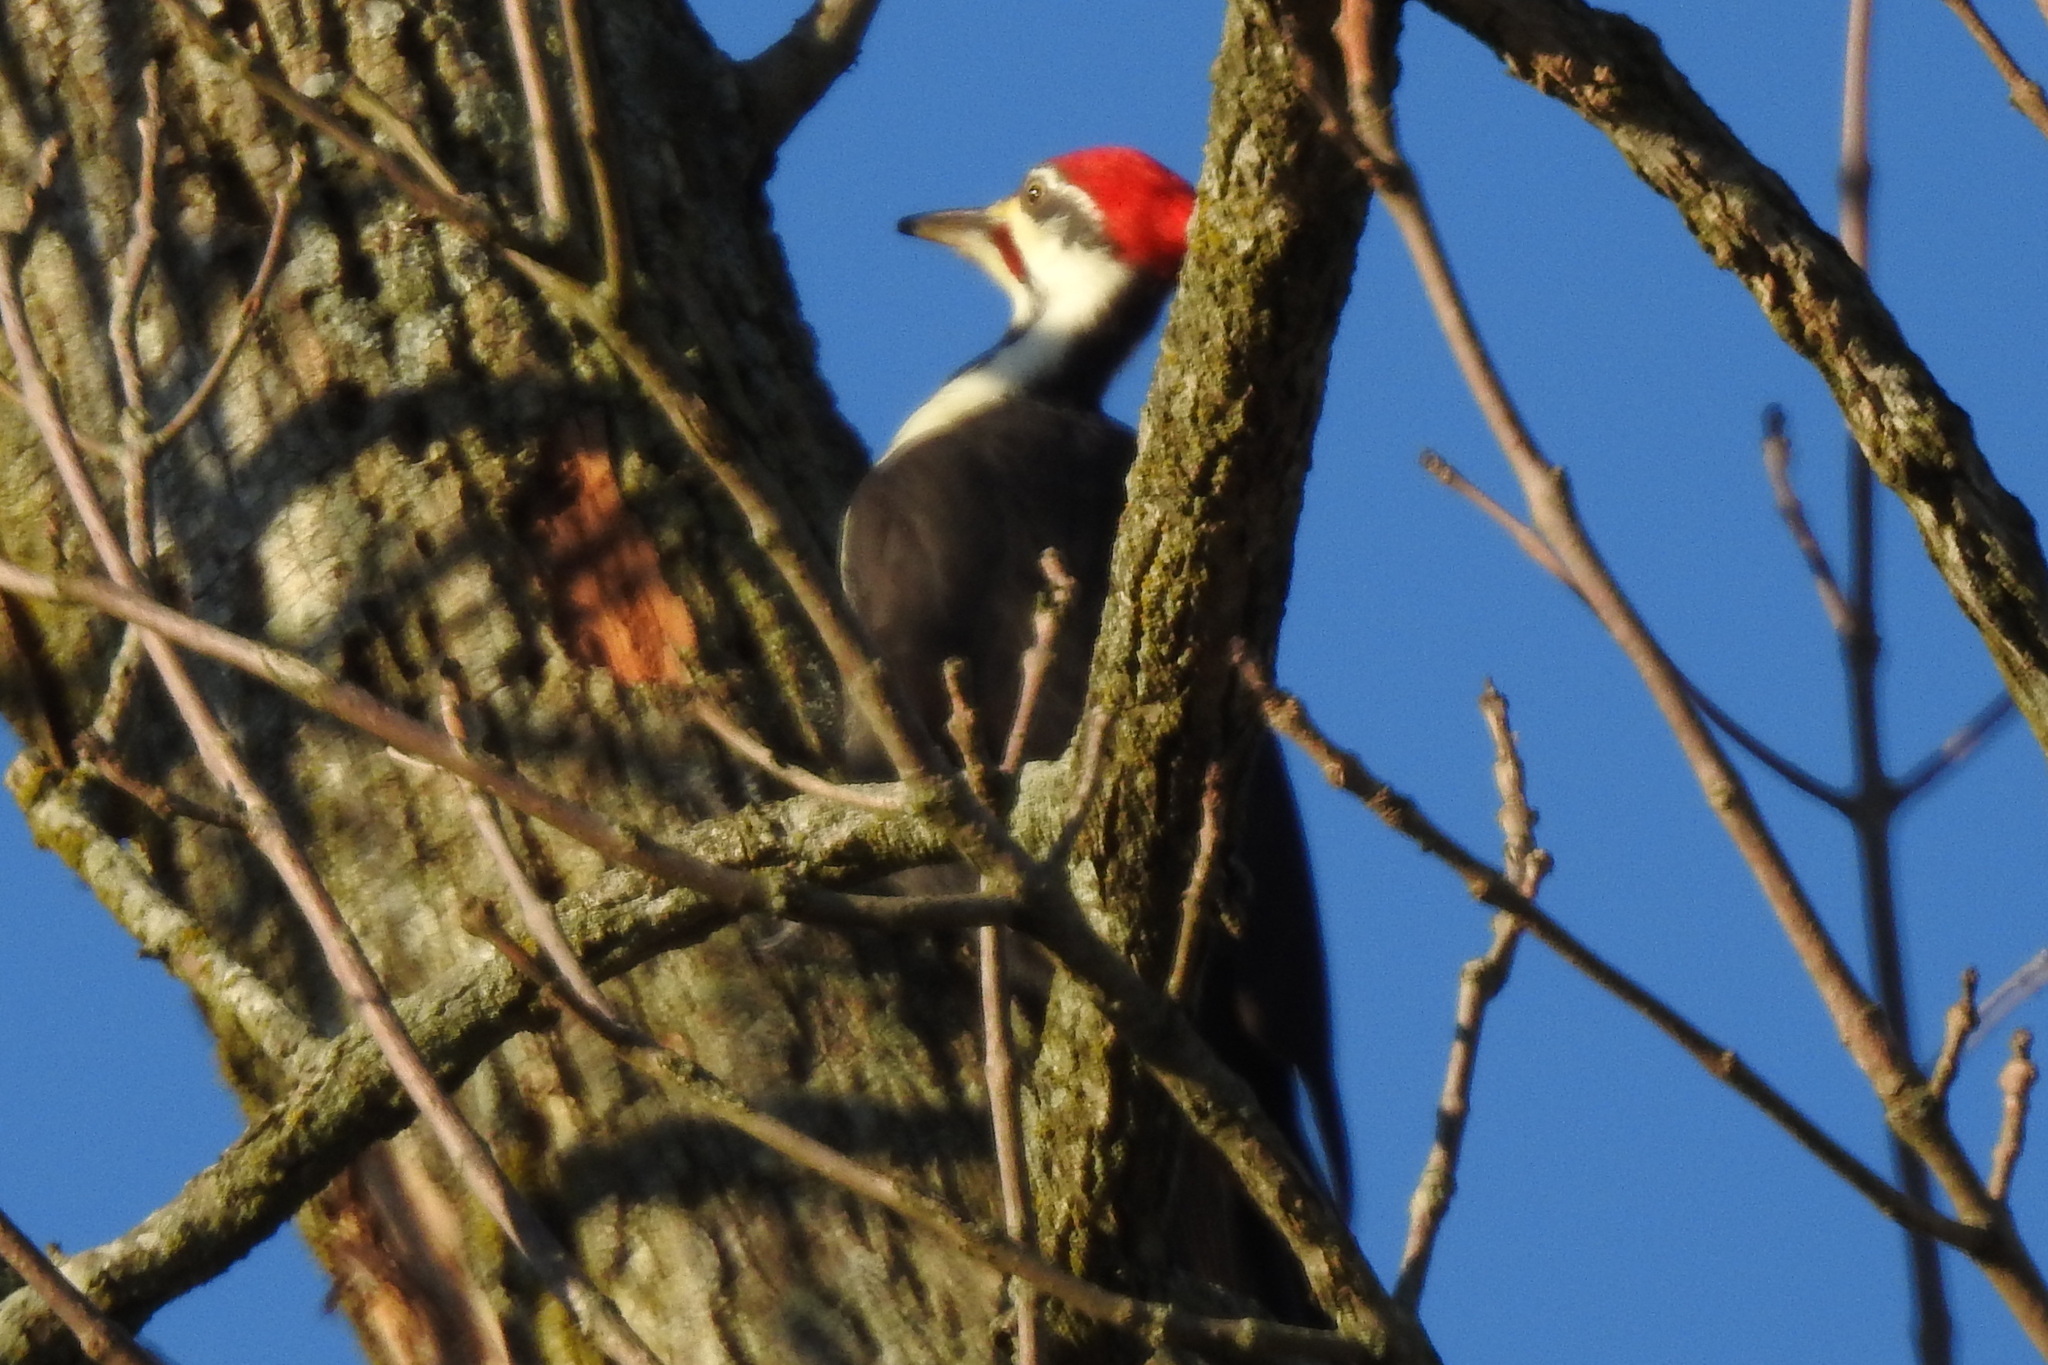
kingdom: Animalia
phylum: Chordata
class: Aves
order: Piciformes
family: Picidae
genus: Dryocopus
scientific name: Dryocopus pileatus
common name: Pileated woodpecker
